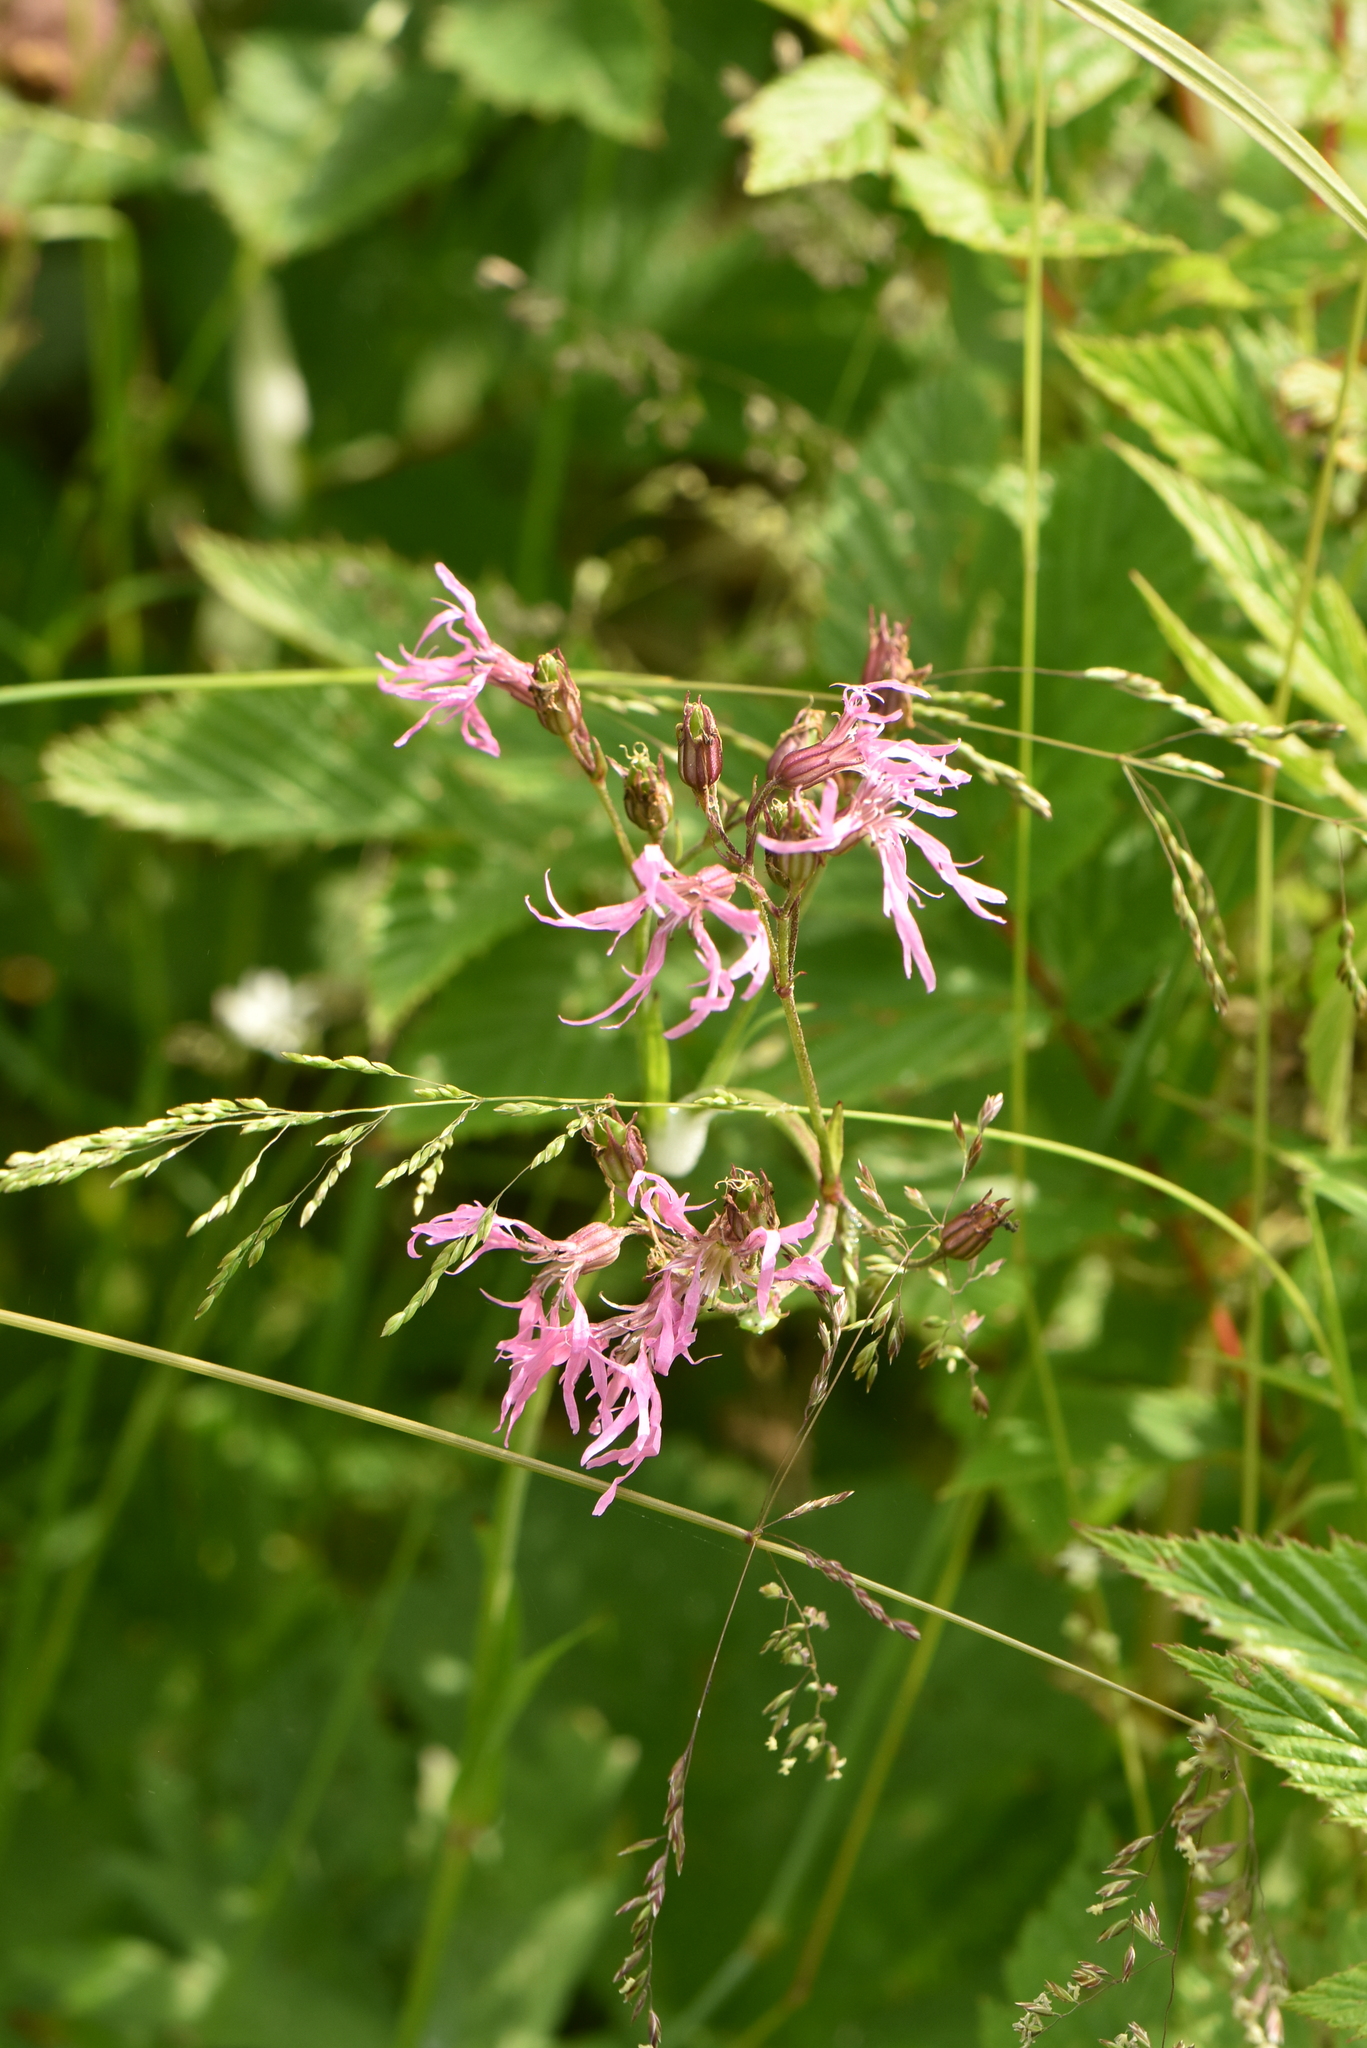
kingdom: Plantae
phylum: Tracheophyta
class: Magnoliopsida
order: Caryophyllales
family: Caryophyllaceae
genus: Silene
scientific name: Silene flos-cuculi
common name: Ragged-robin
